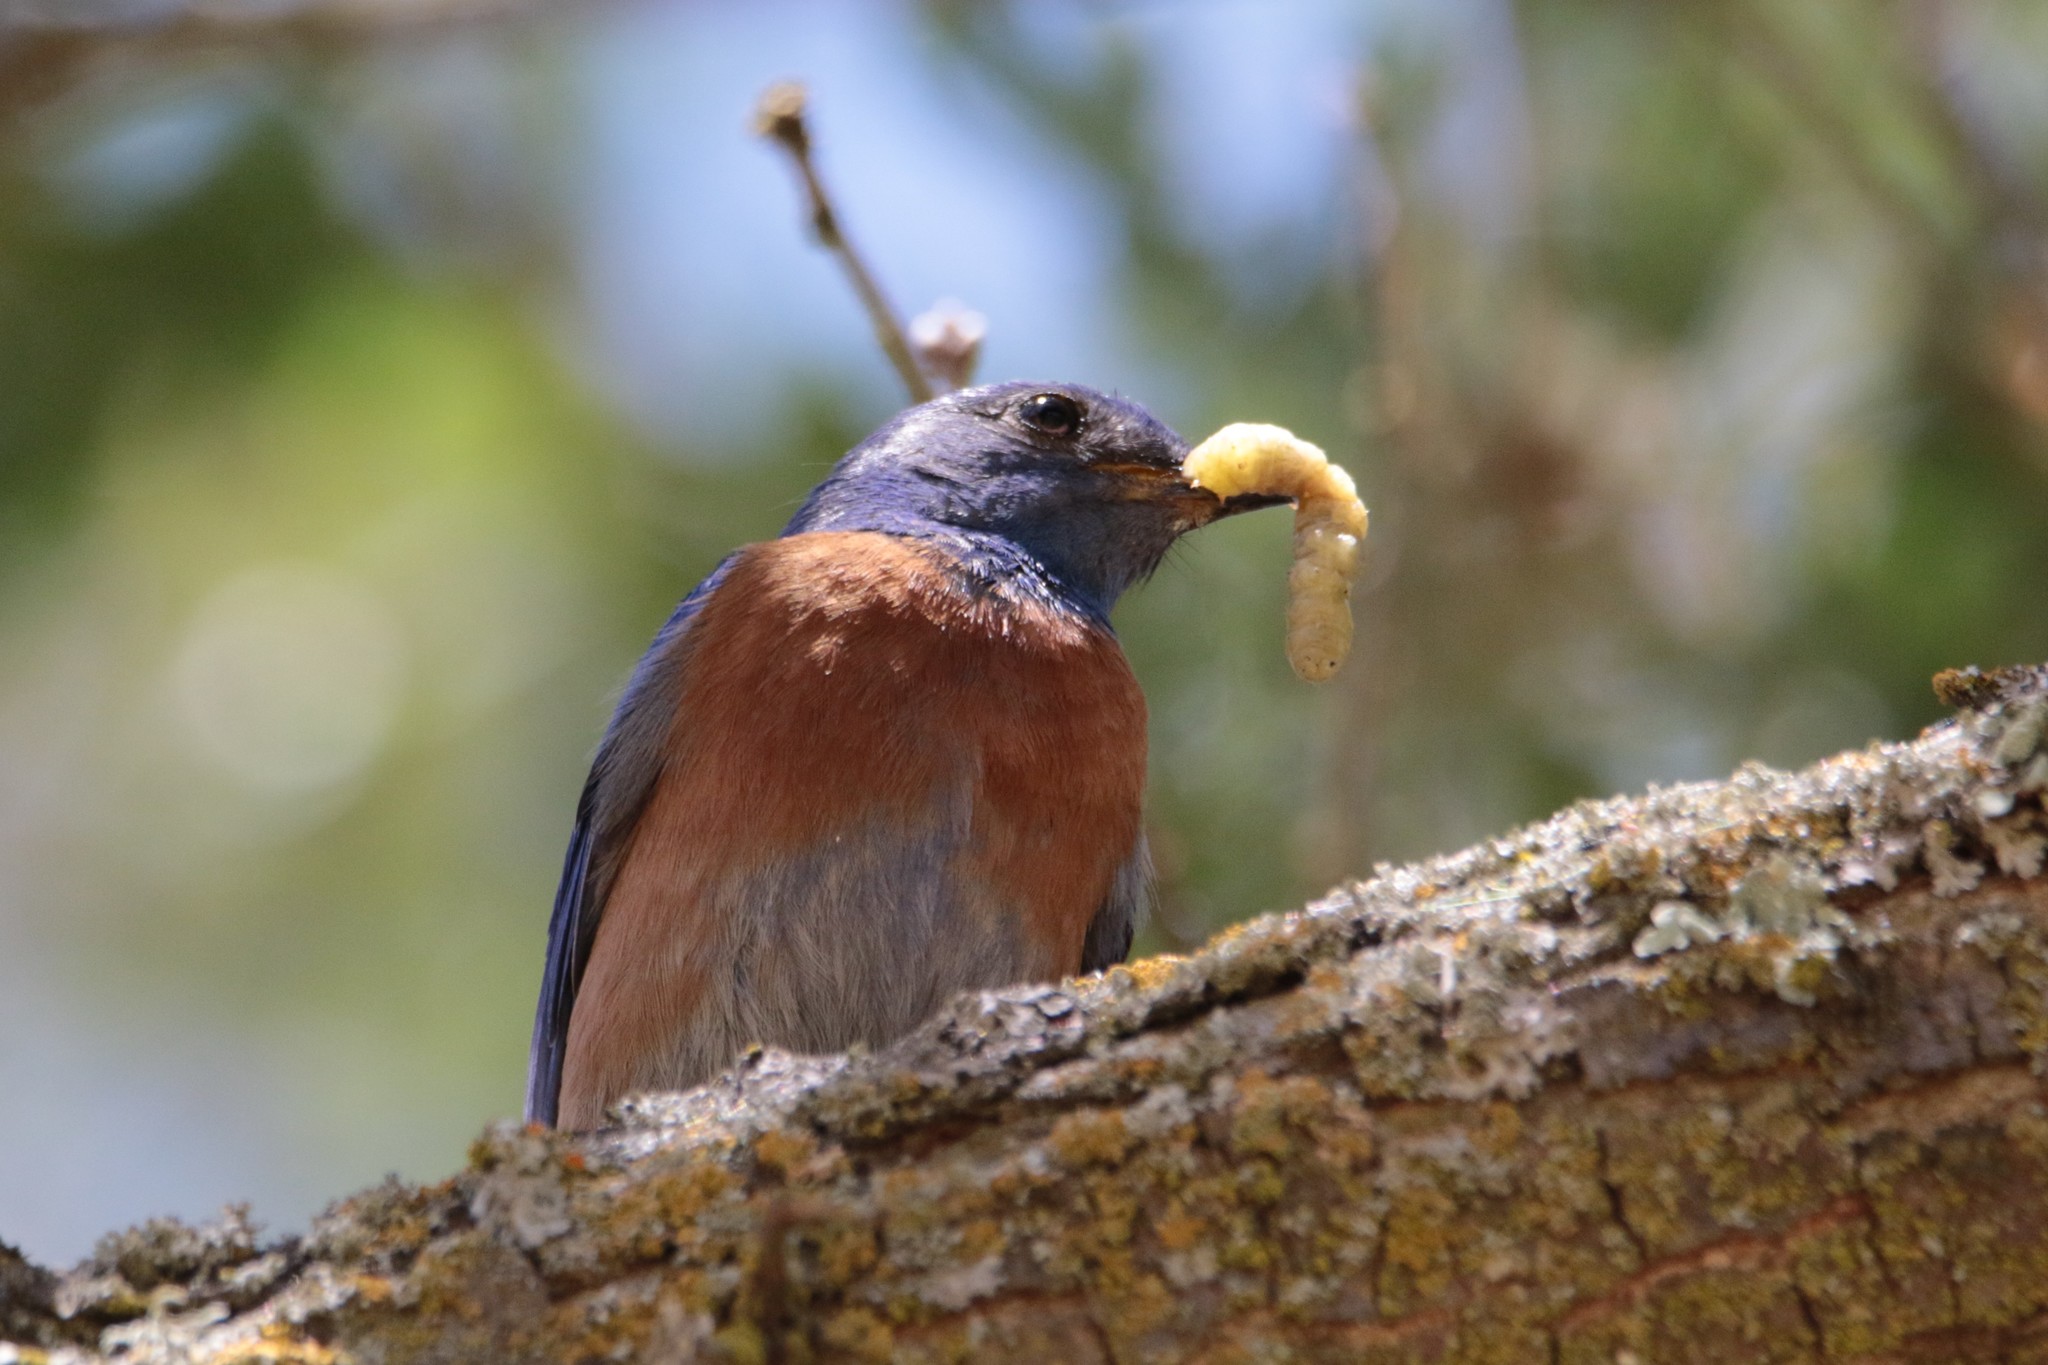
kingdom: Animalia
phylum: Chordata
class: Aves
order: Passeriformes
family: Turdidae
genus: Sialia
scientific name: Sialia mexicana
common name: Western bluebird
